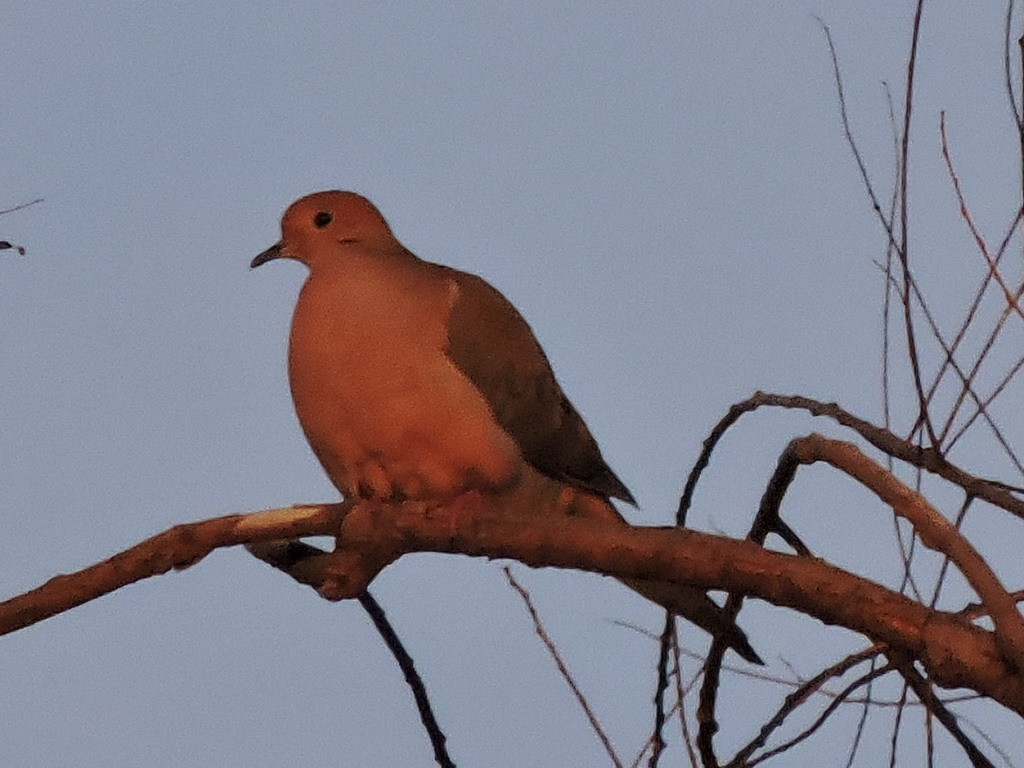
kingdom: Animalia
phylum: Chordata
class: Aves
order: Columbiformes
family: Columbidae
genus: Zenaida
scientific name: Zenaida macroura
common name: Mourning dove
